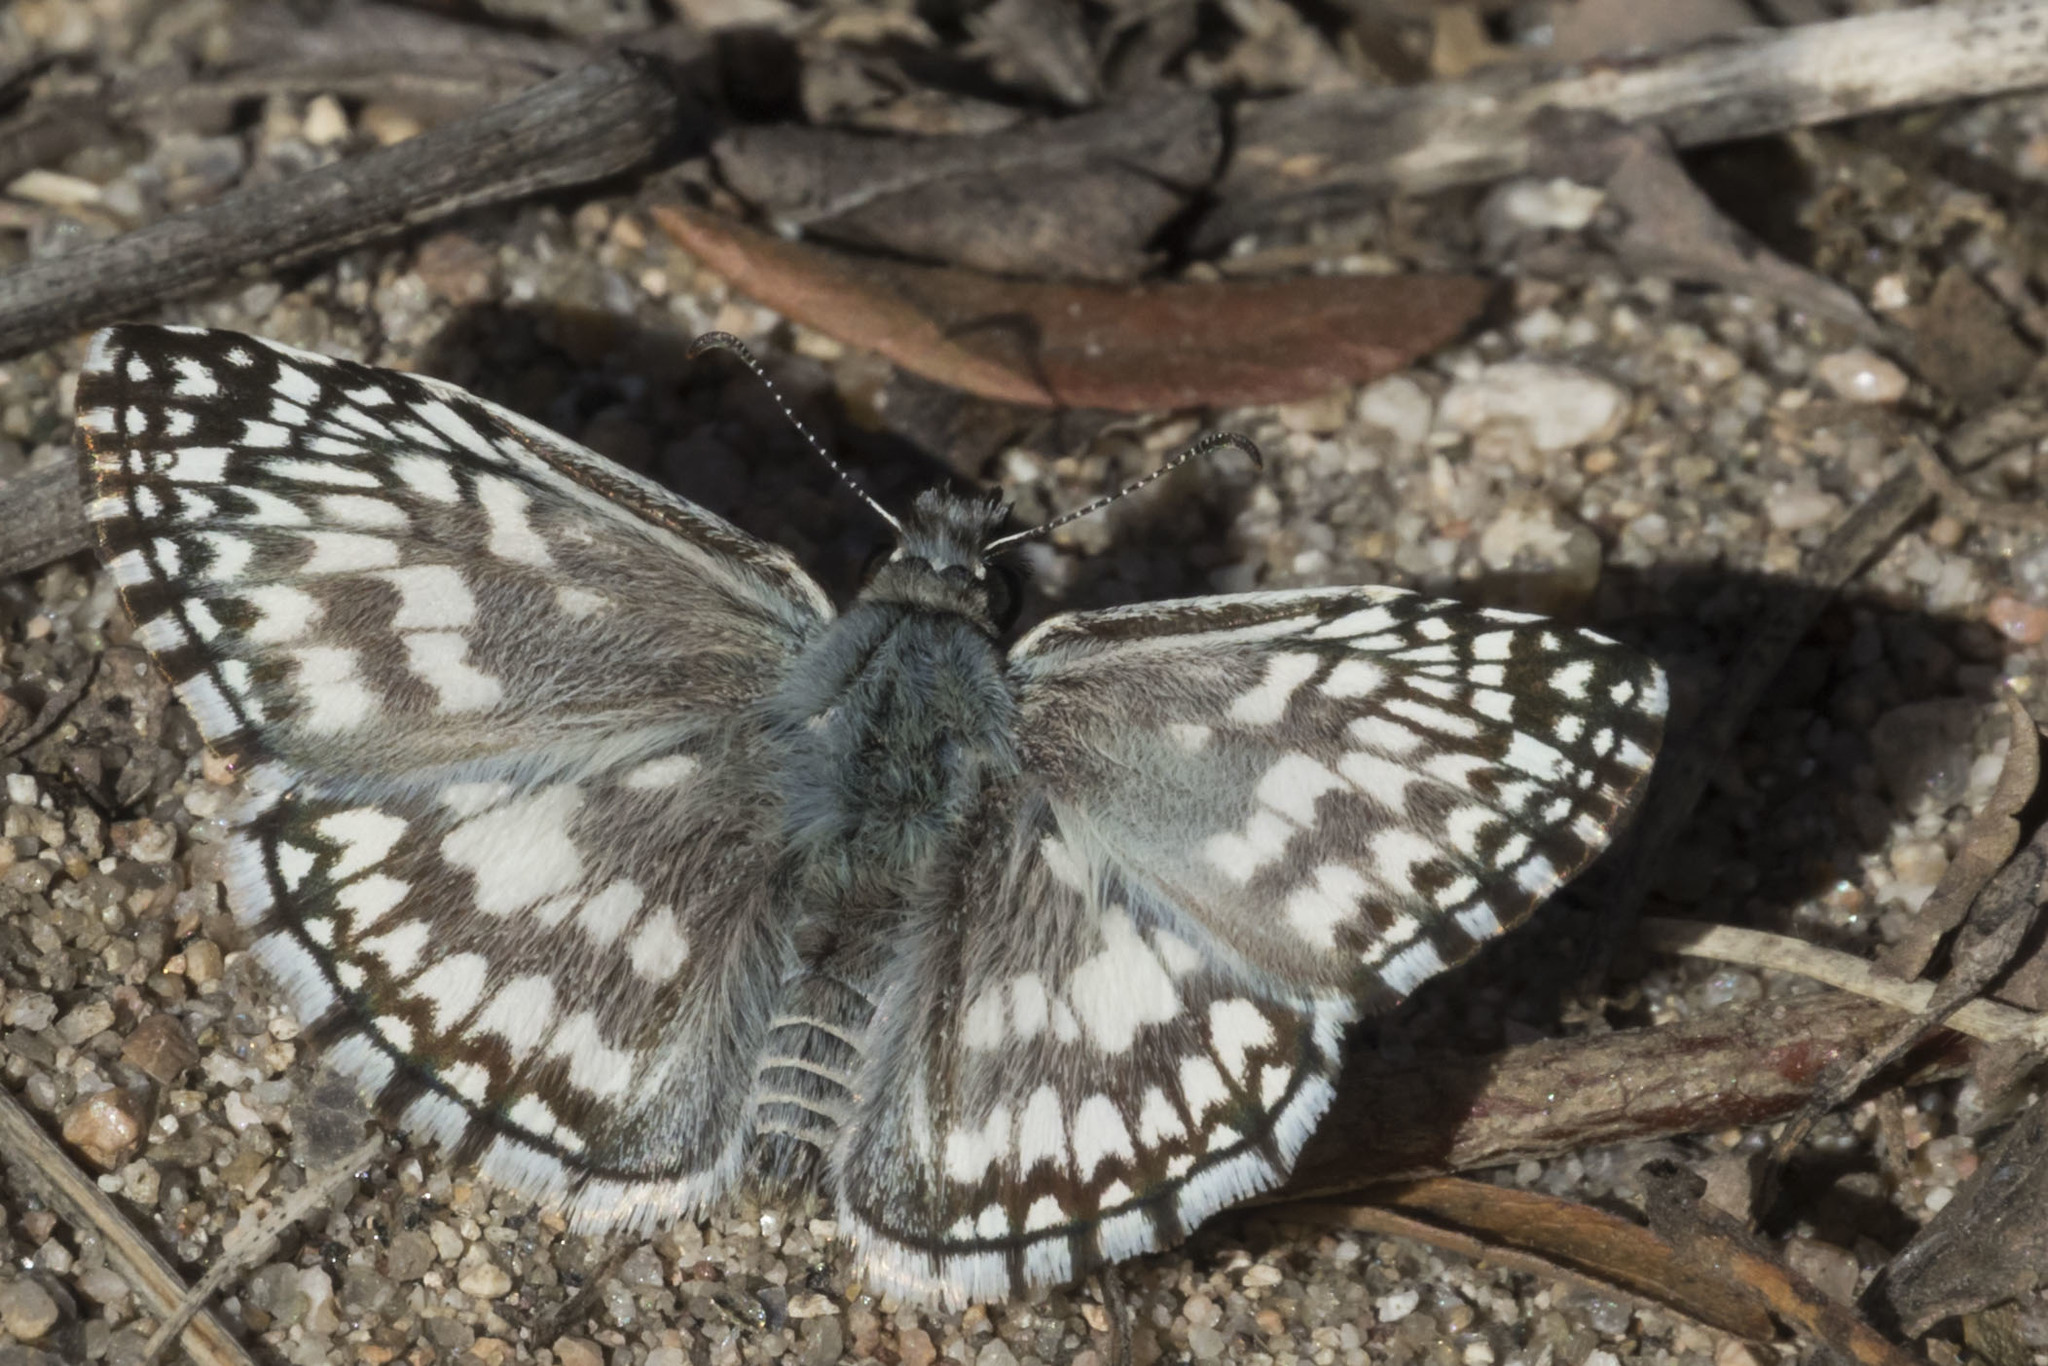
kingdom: Animalia
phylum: Arthropoda
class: Insecta
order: Lepidoptera
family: Hesperiidae
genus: Pyrgus
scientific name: Pyrgus oileus
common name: Tropical checkered-skipper
